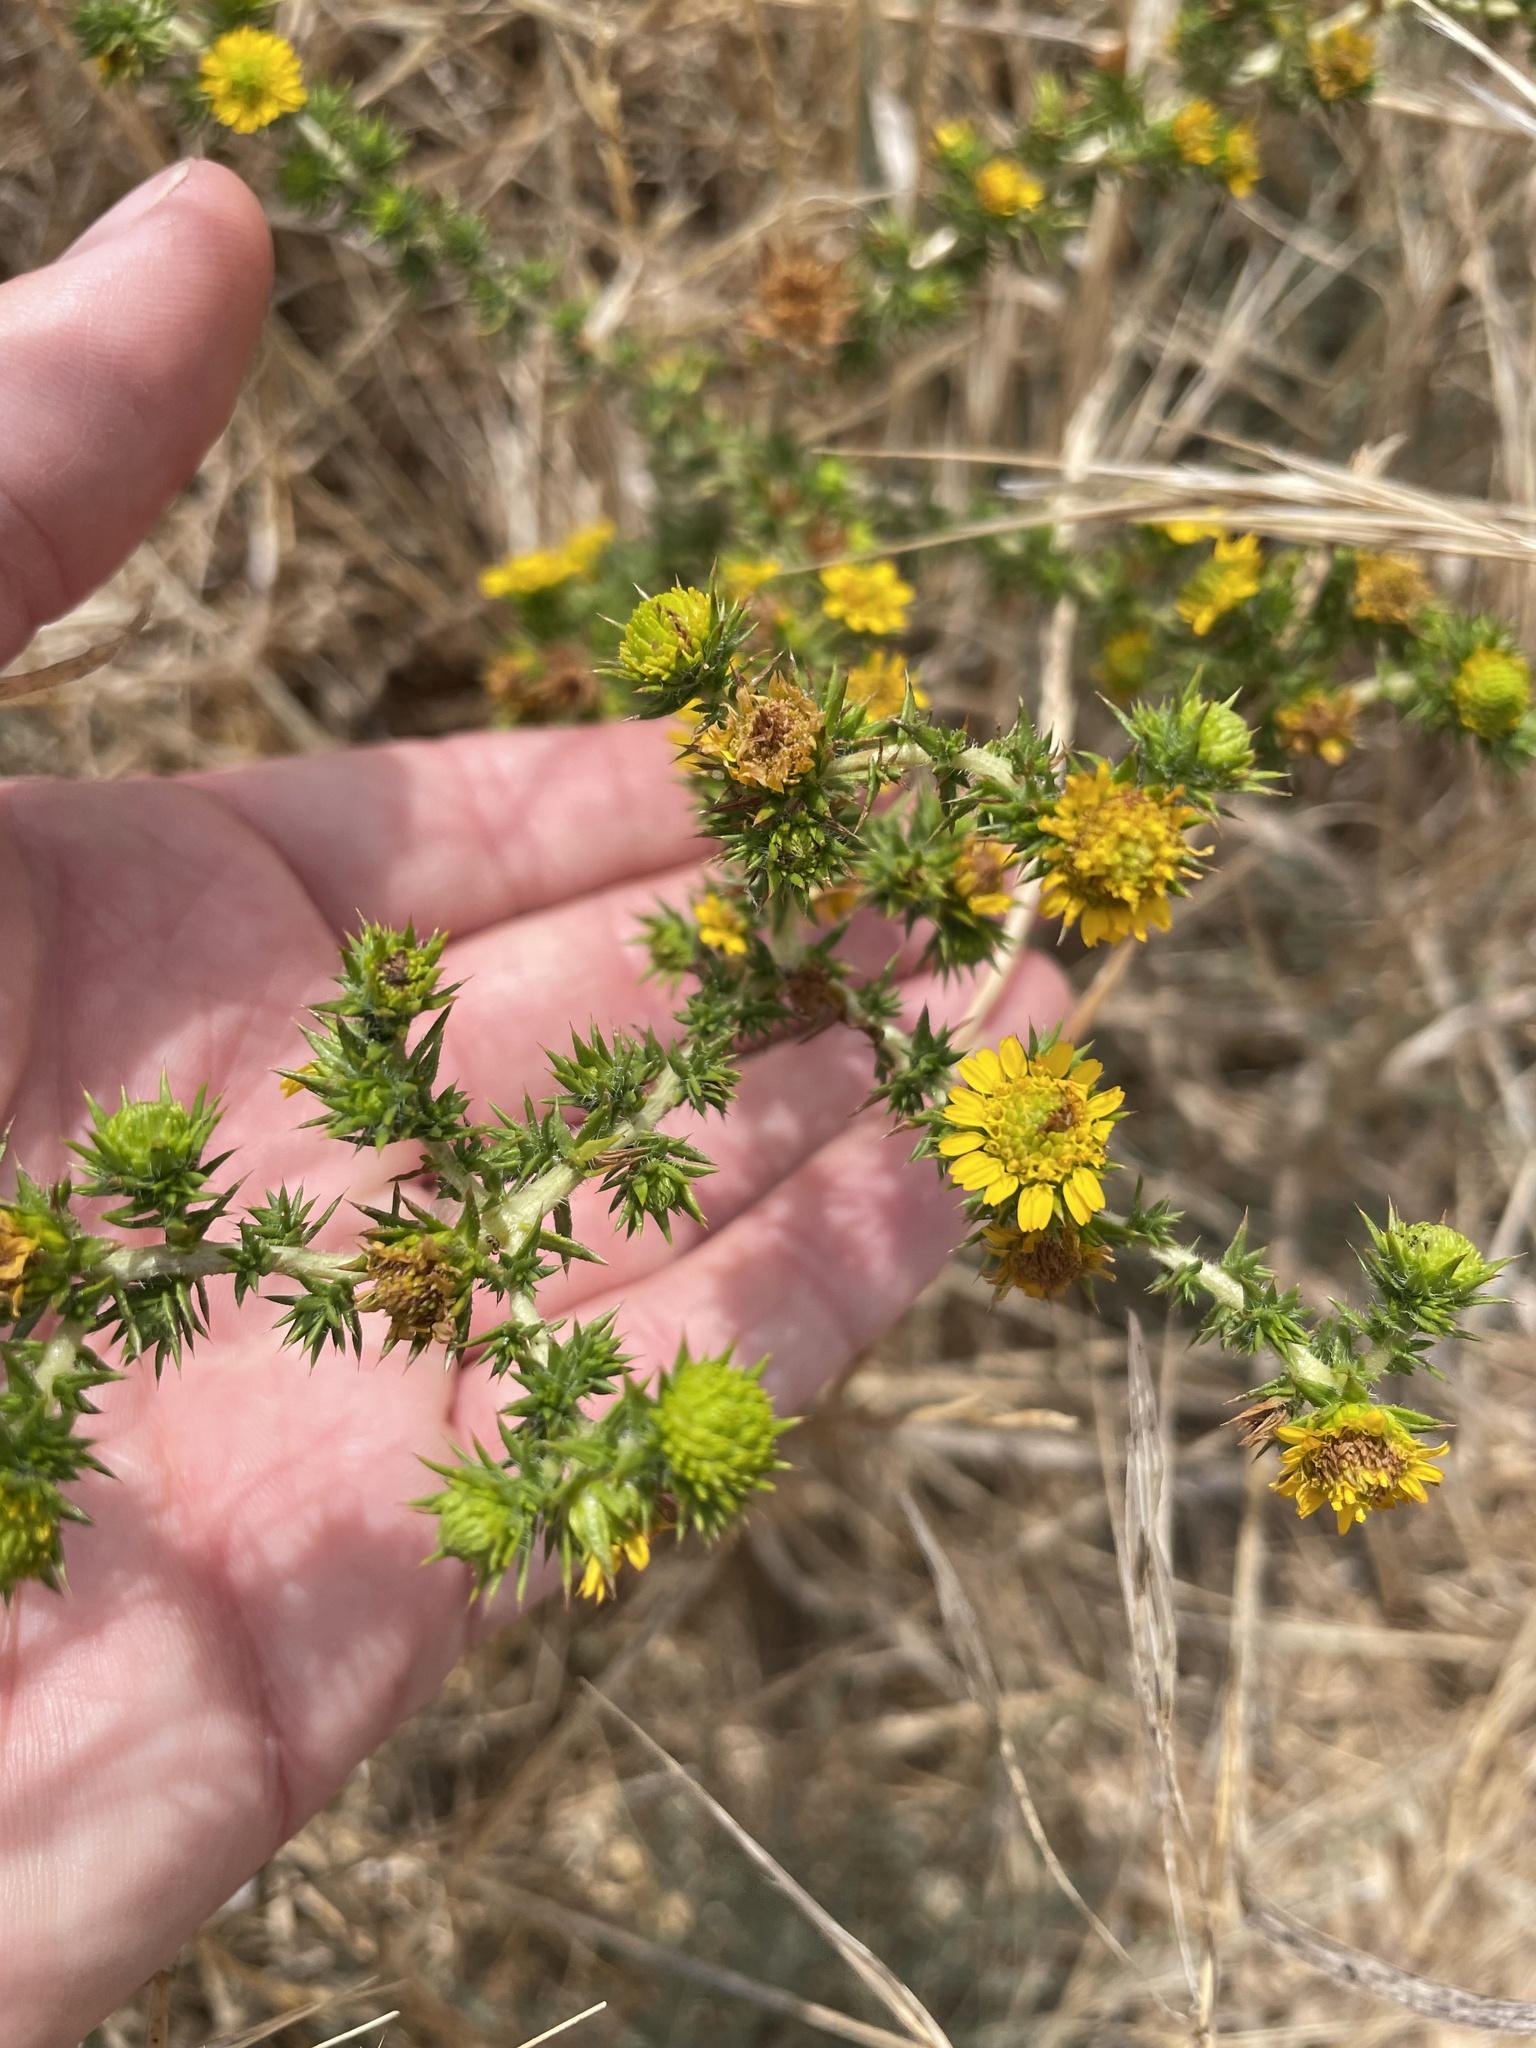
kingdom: Plantae
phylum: Tracheophyta
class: Magnoliopsida
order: Asterales
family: Asteraceae
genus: Centromadia
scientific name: Centromadia pungens
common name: Common spikeweed
